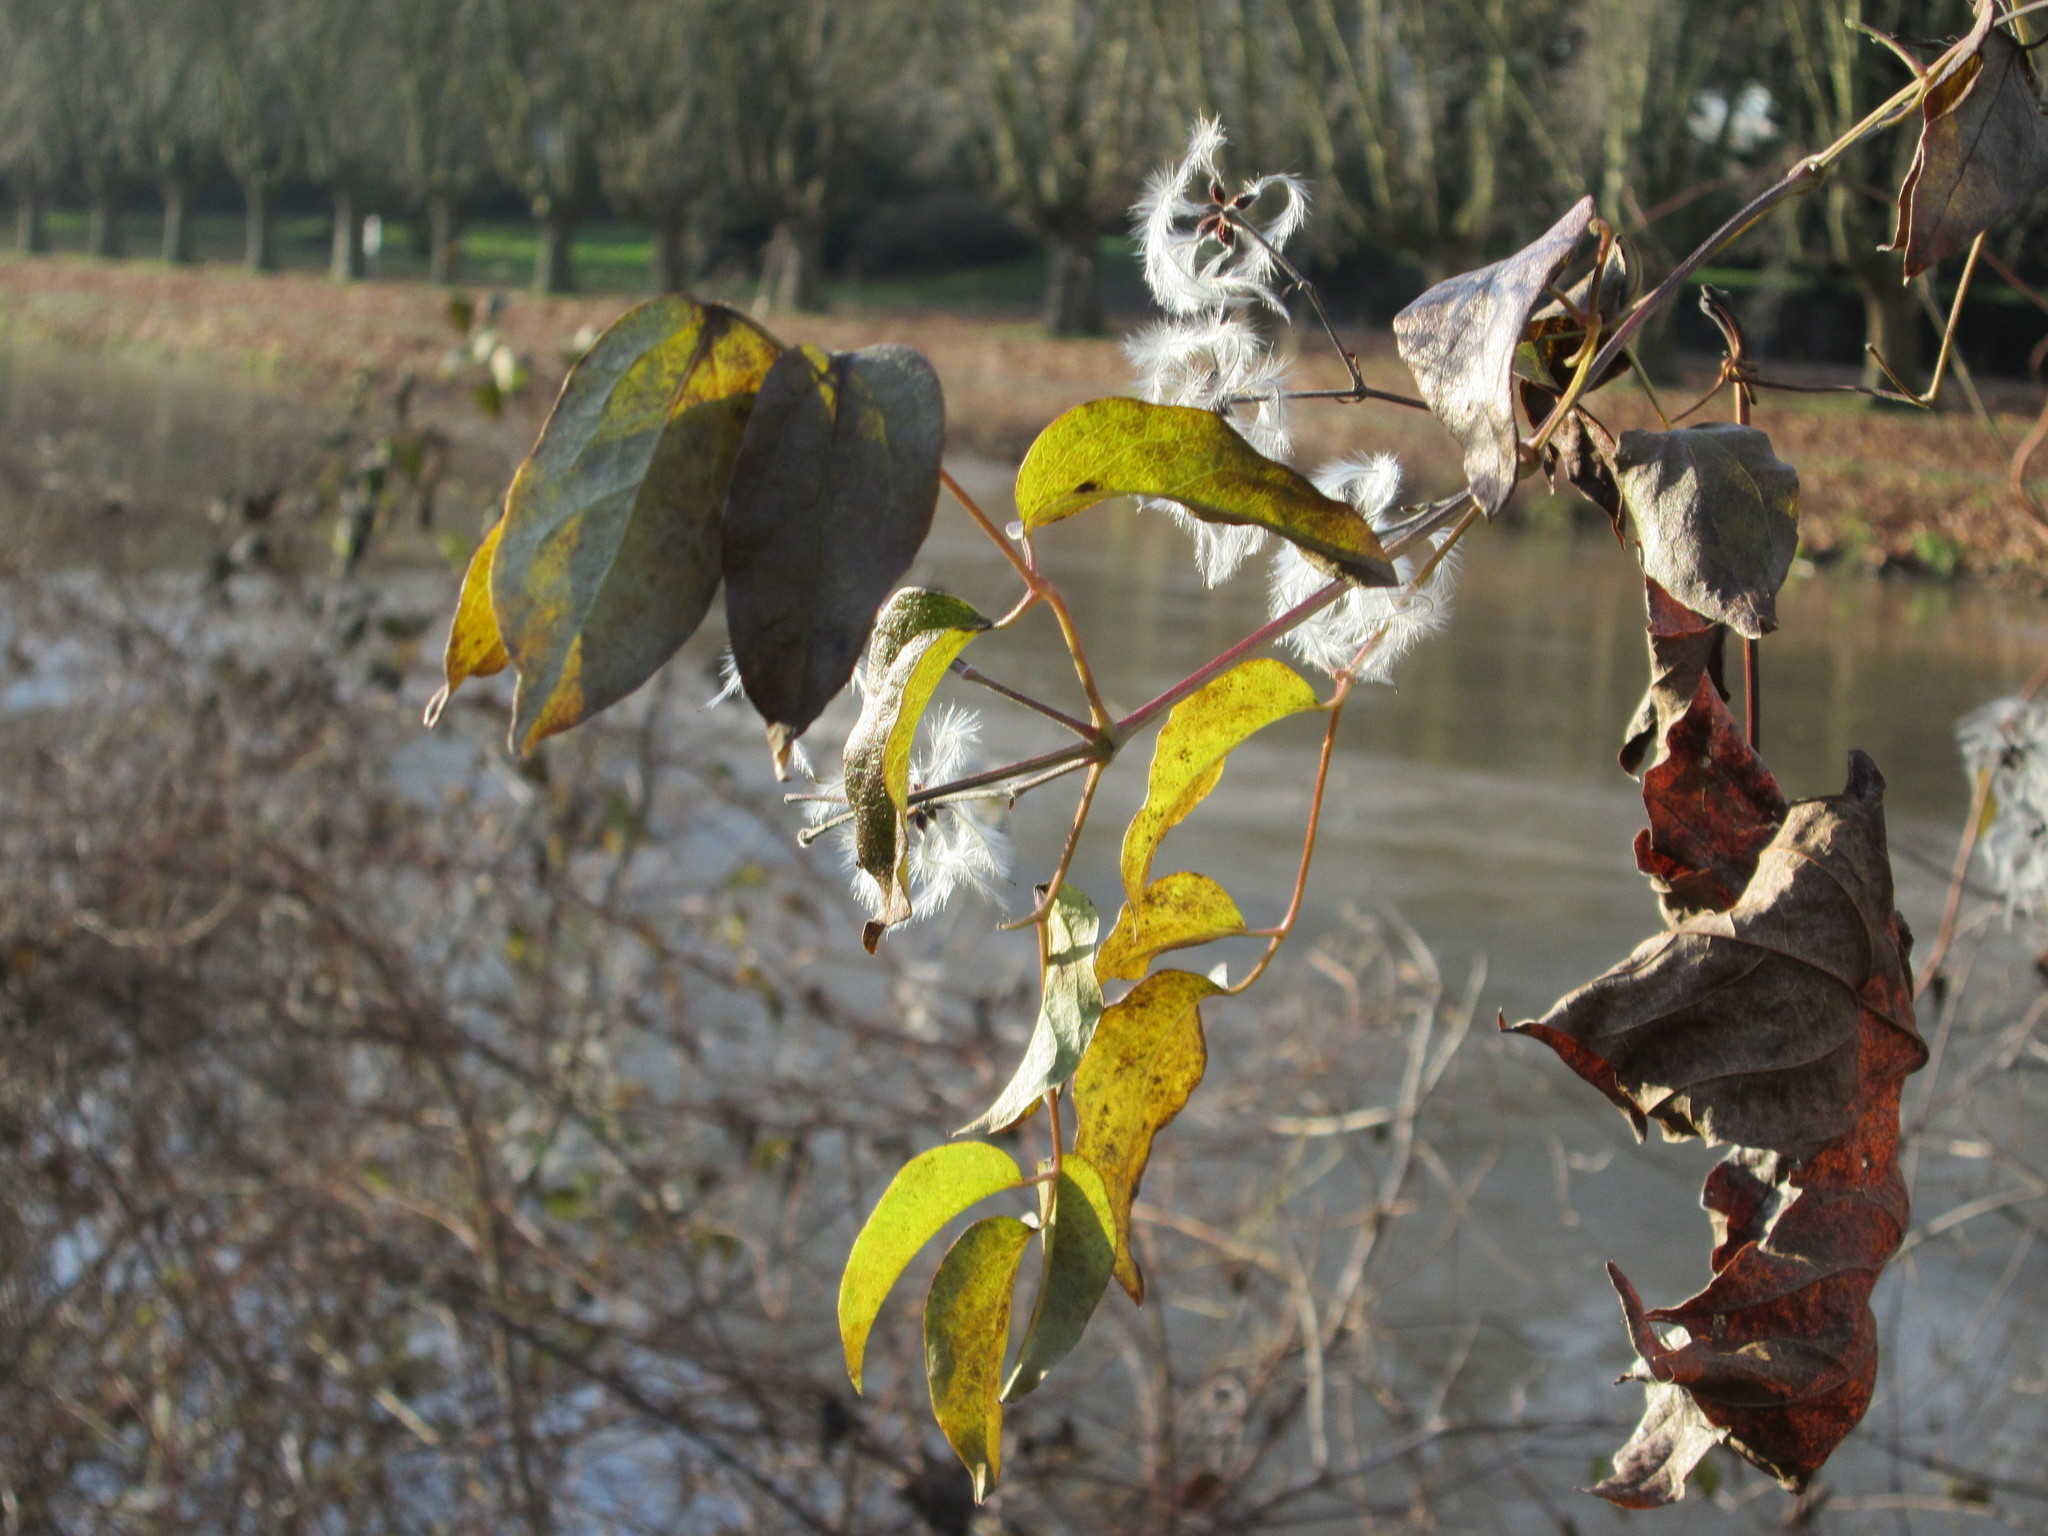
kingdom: Plantae
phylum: Tracheophyta
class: Magnoliopsida
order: Ranunculales
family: Ranunculaceae
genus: Clematis
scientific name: Clematis vitalba
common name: Evergreen clematis
